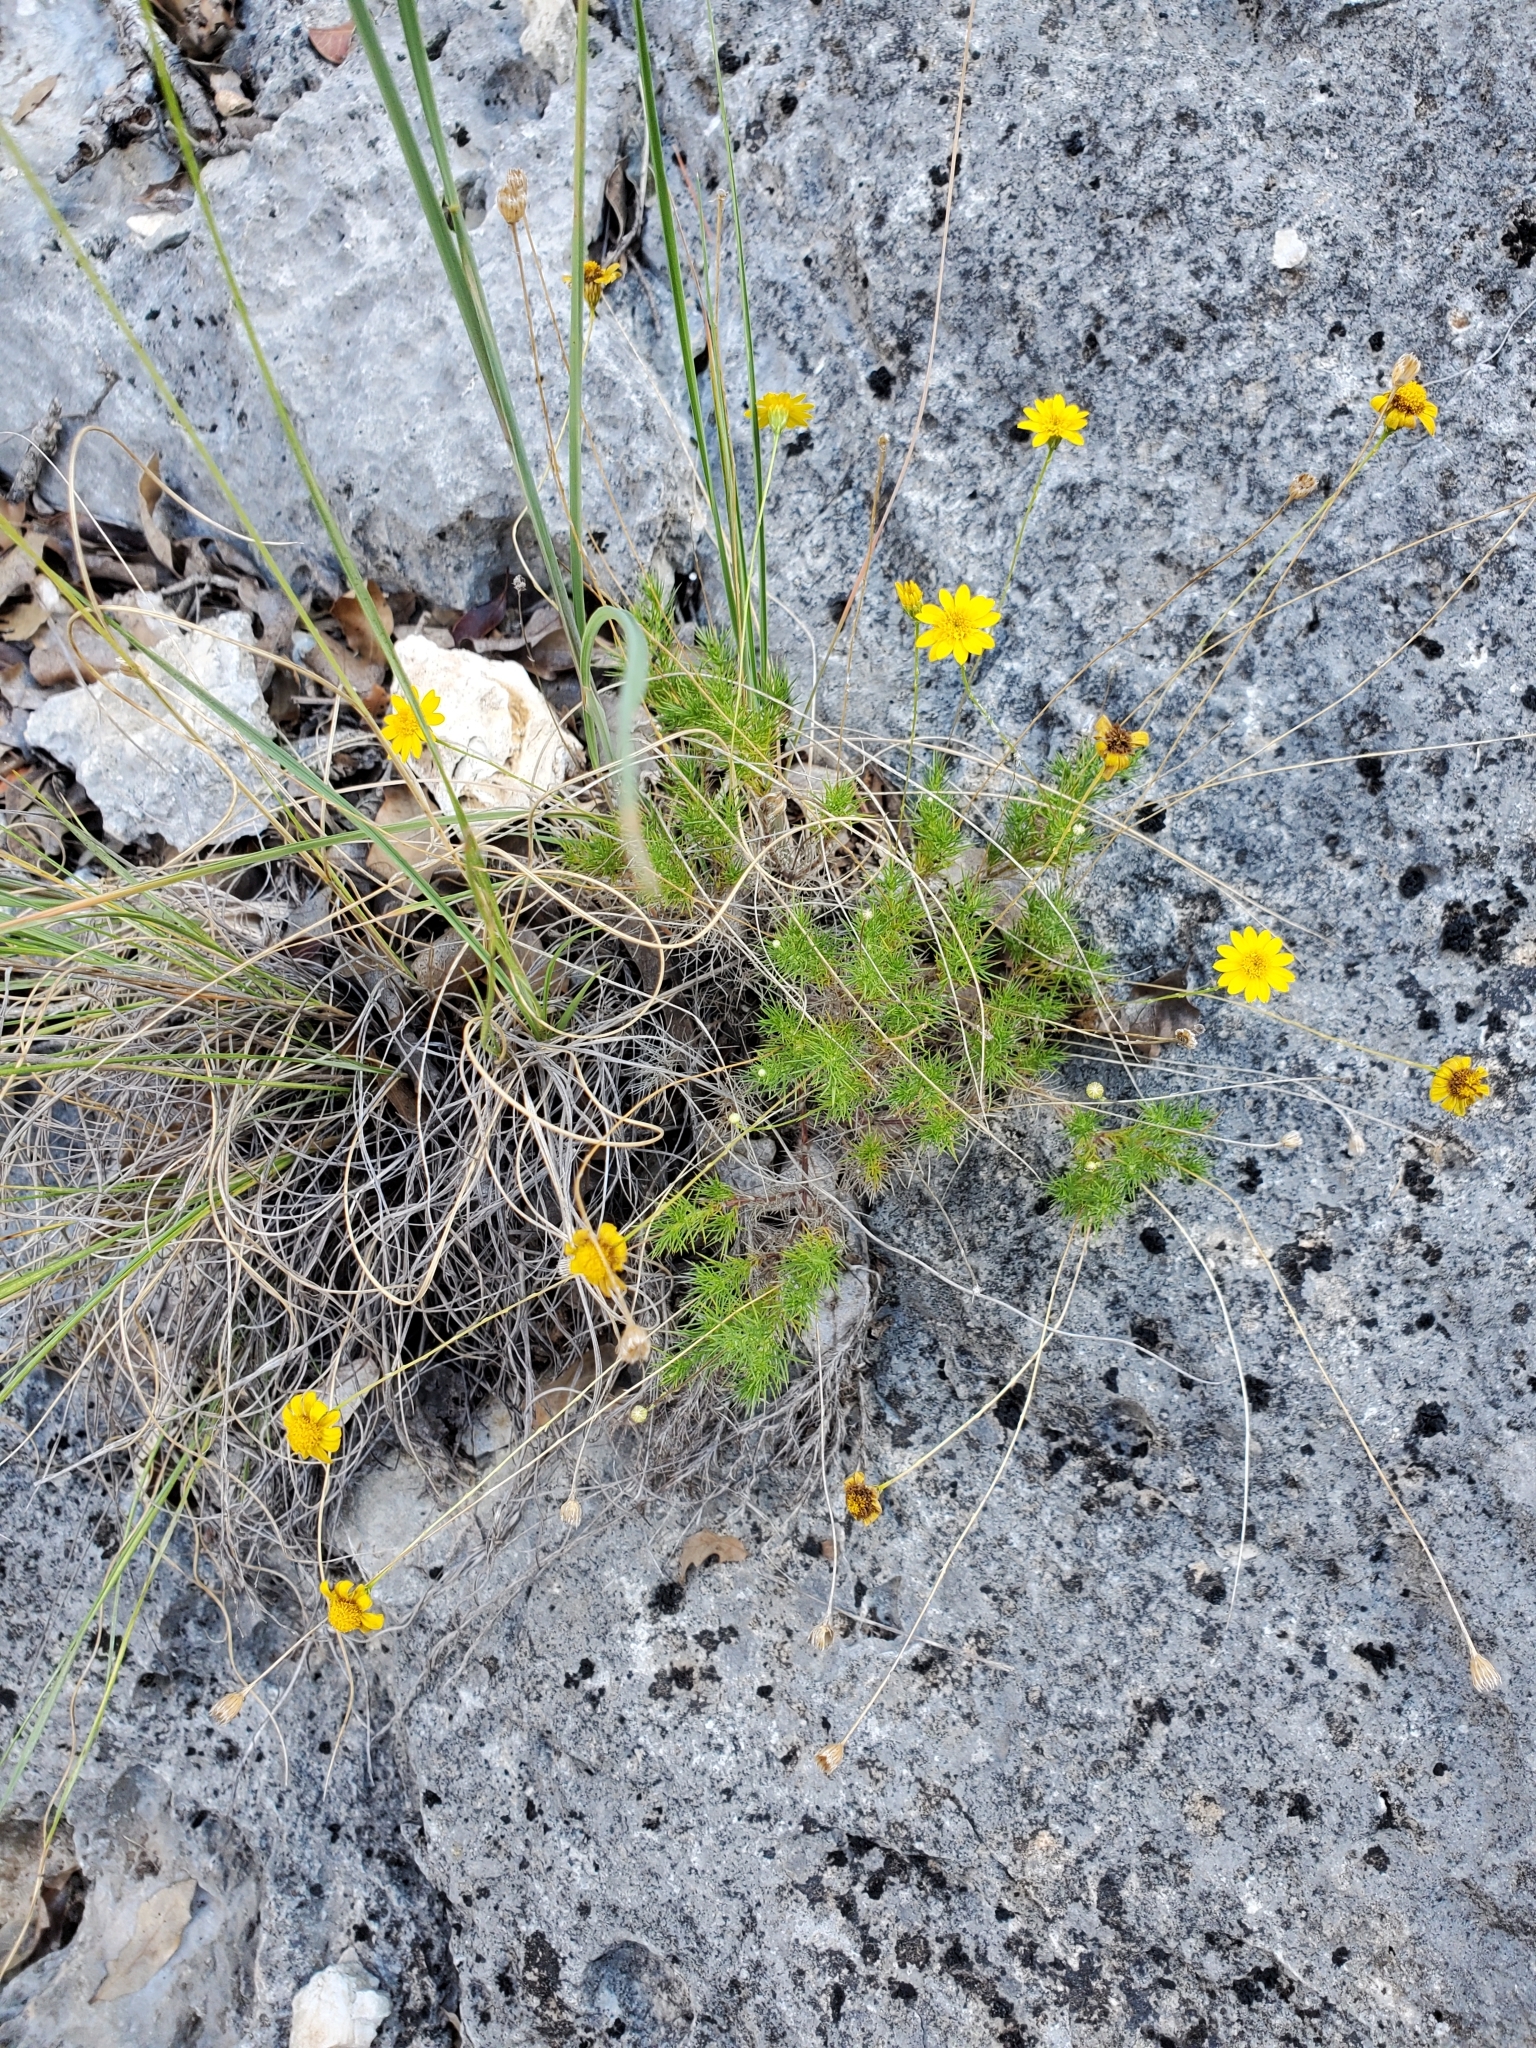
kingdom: Plantae
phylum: Tracheophyta
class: Magnoliopsida
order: Asterales
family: Asteraceae
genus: Thymophylla
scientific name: Thymophylla pentachaeta
